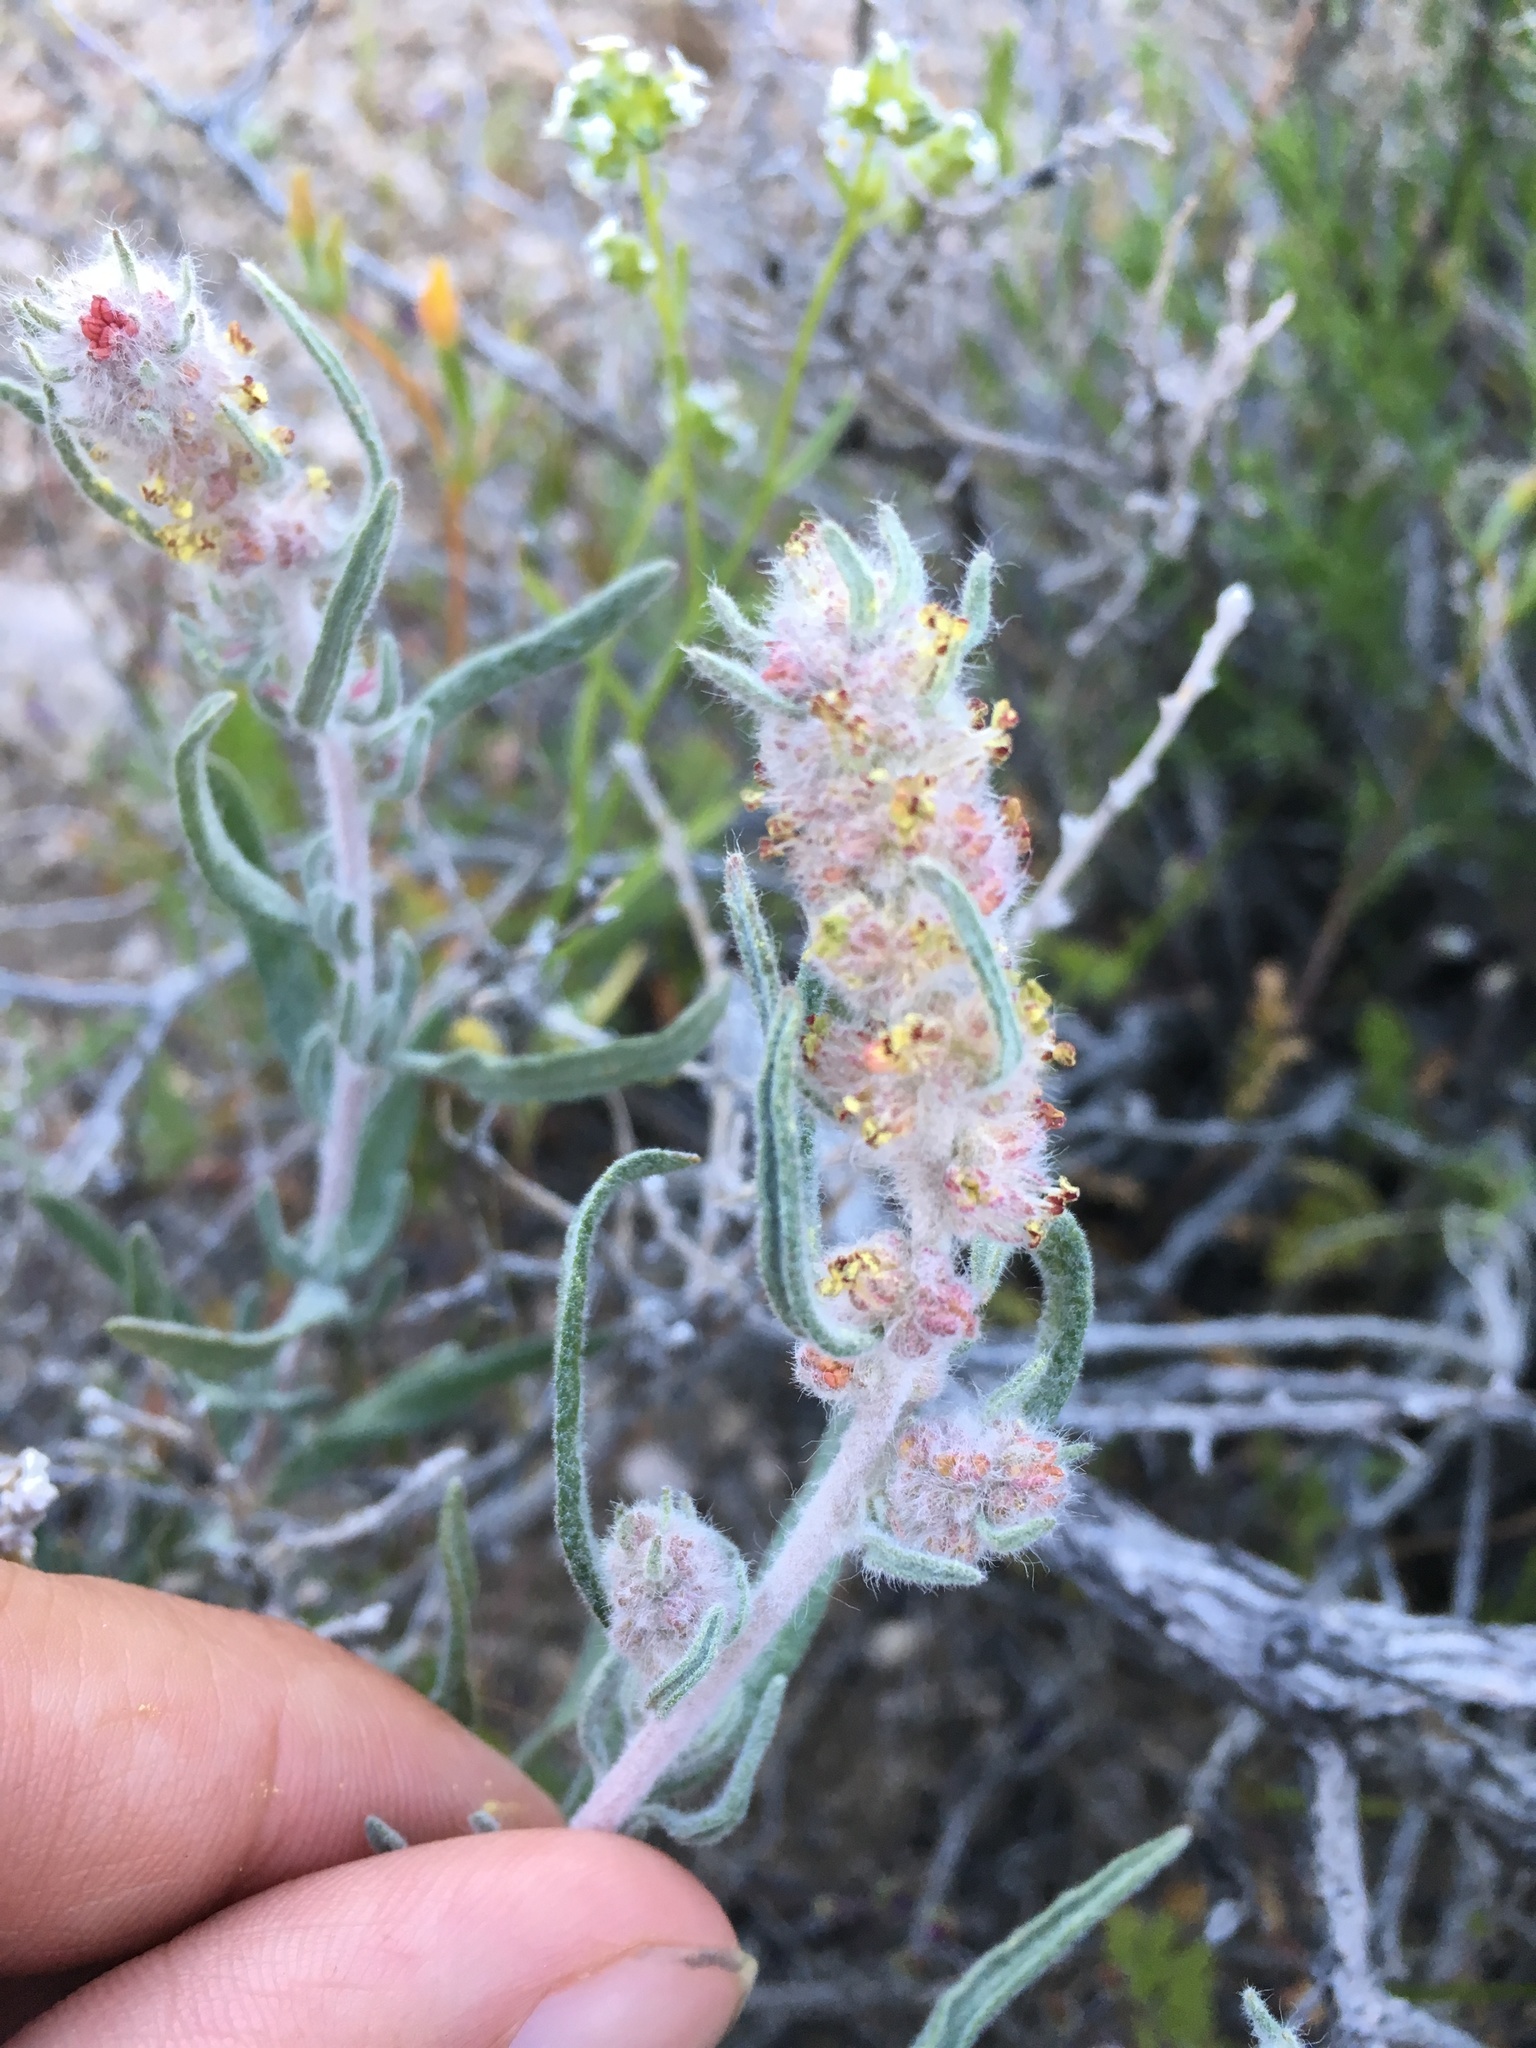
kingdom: Plantae
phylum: Tracheophyta
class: Magnoliopsida
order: Caryophyllales
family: Amaranthaceae
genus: Krascheninnikovia
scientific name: Krascheninnikovia lanata
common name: Winterfat
